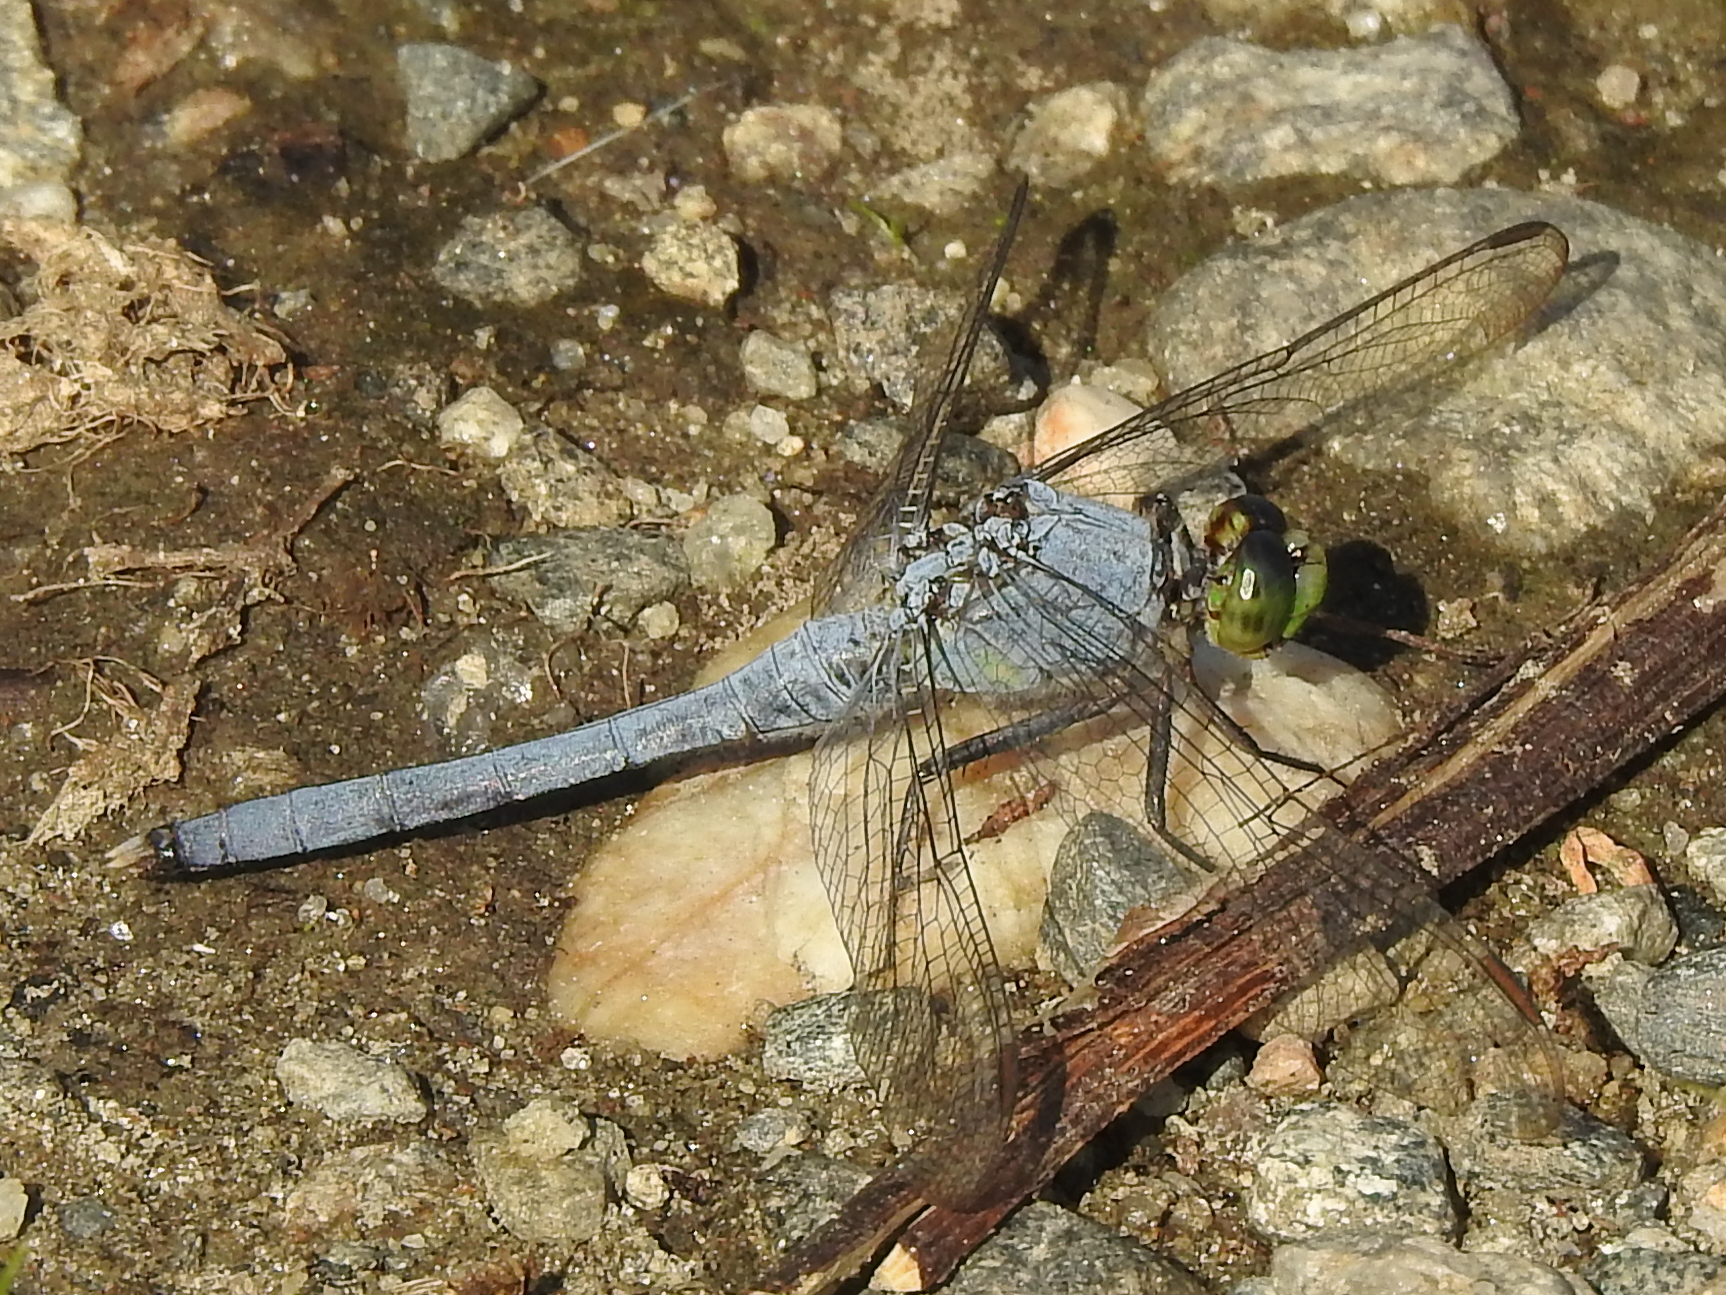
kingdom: Animalia
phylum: Arthropoda
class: Insecta
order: Odonata
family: Libellulidae
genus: Erythemis
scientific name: Erythemis simplicicollis
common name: Eastern pondhawk
